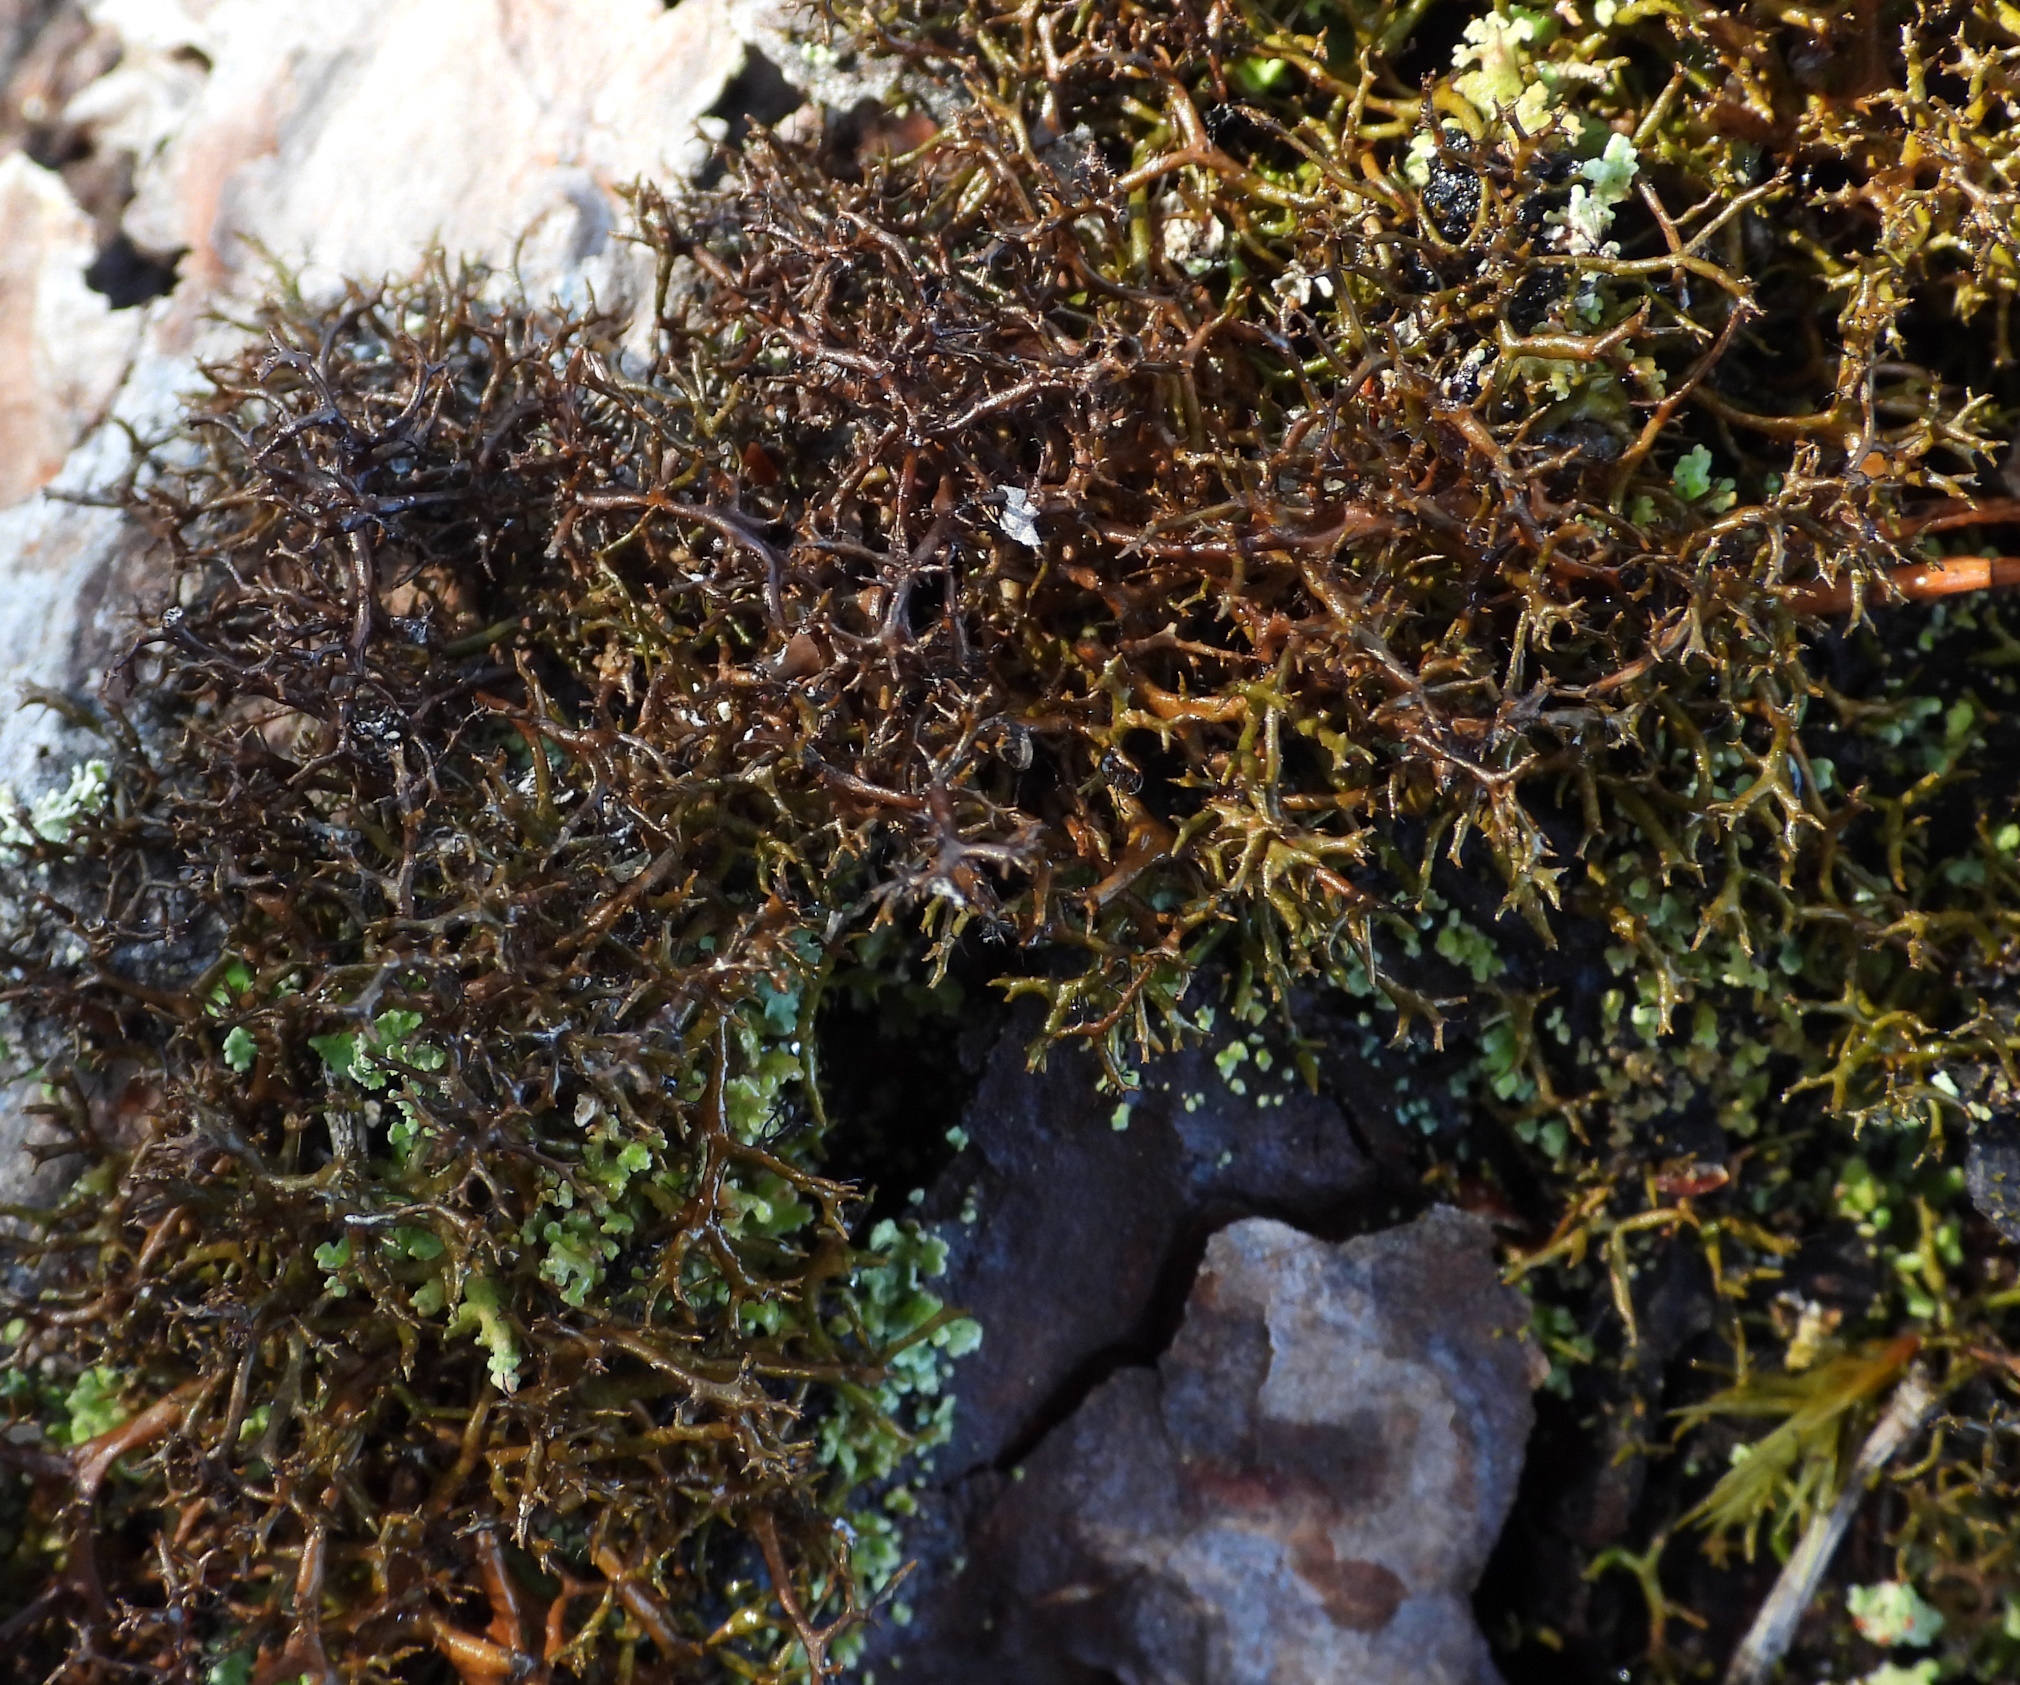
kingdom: Fungi
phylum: Ascomycota
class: Lecanoromycetes
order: Lecanorales
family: Parmeliaceae
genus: Cetraria
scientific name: Cetraria muricata
